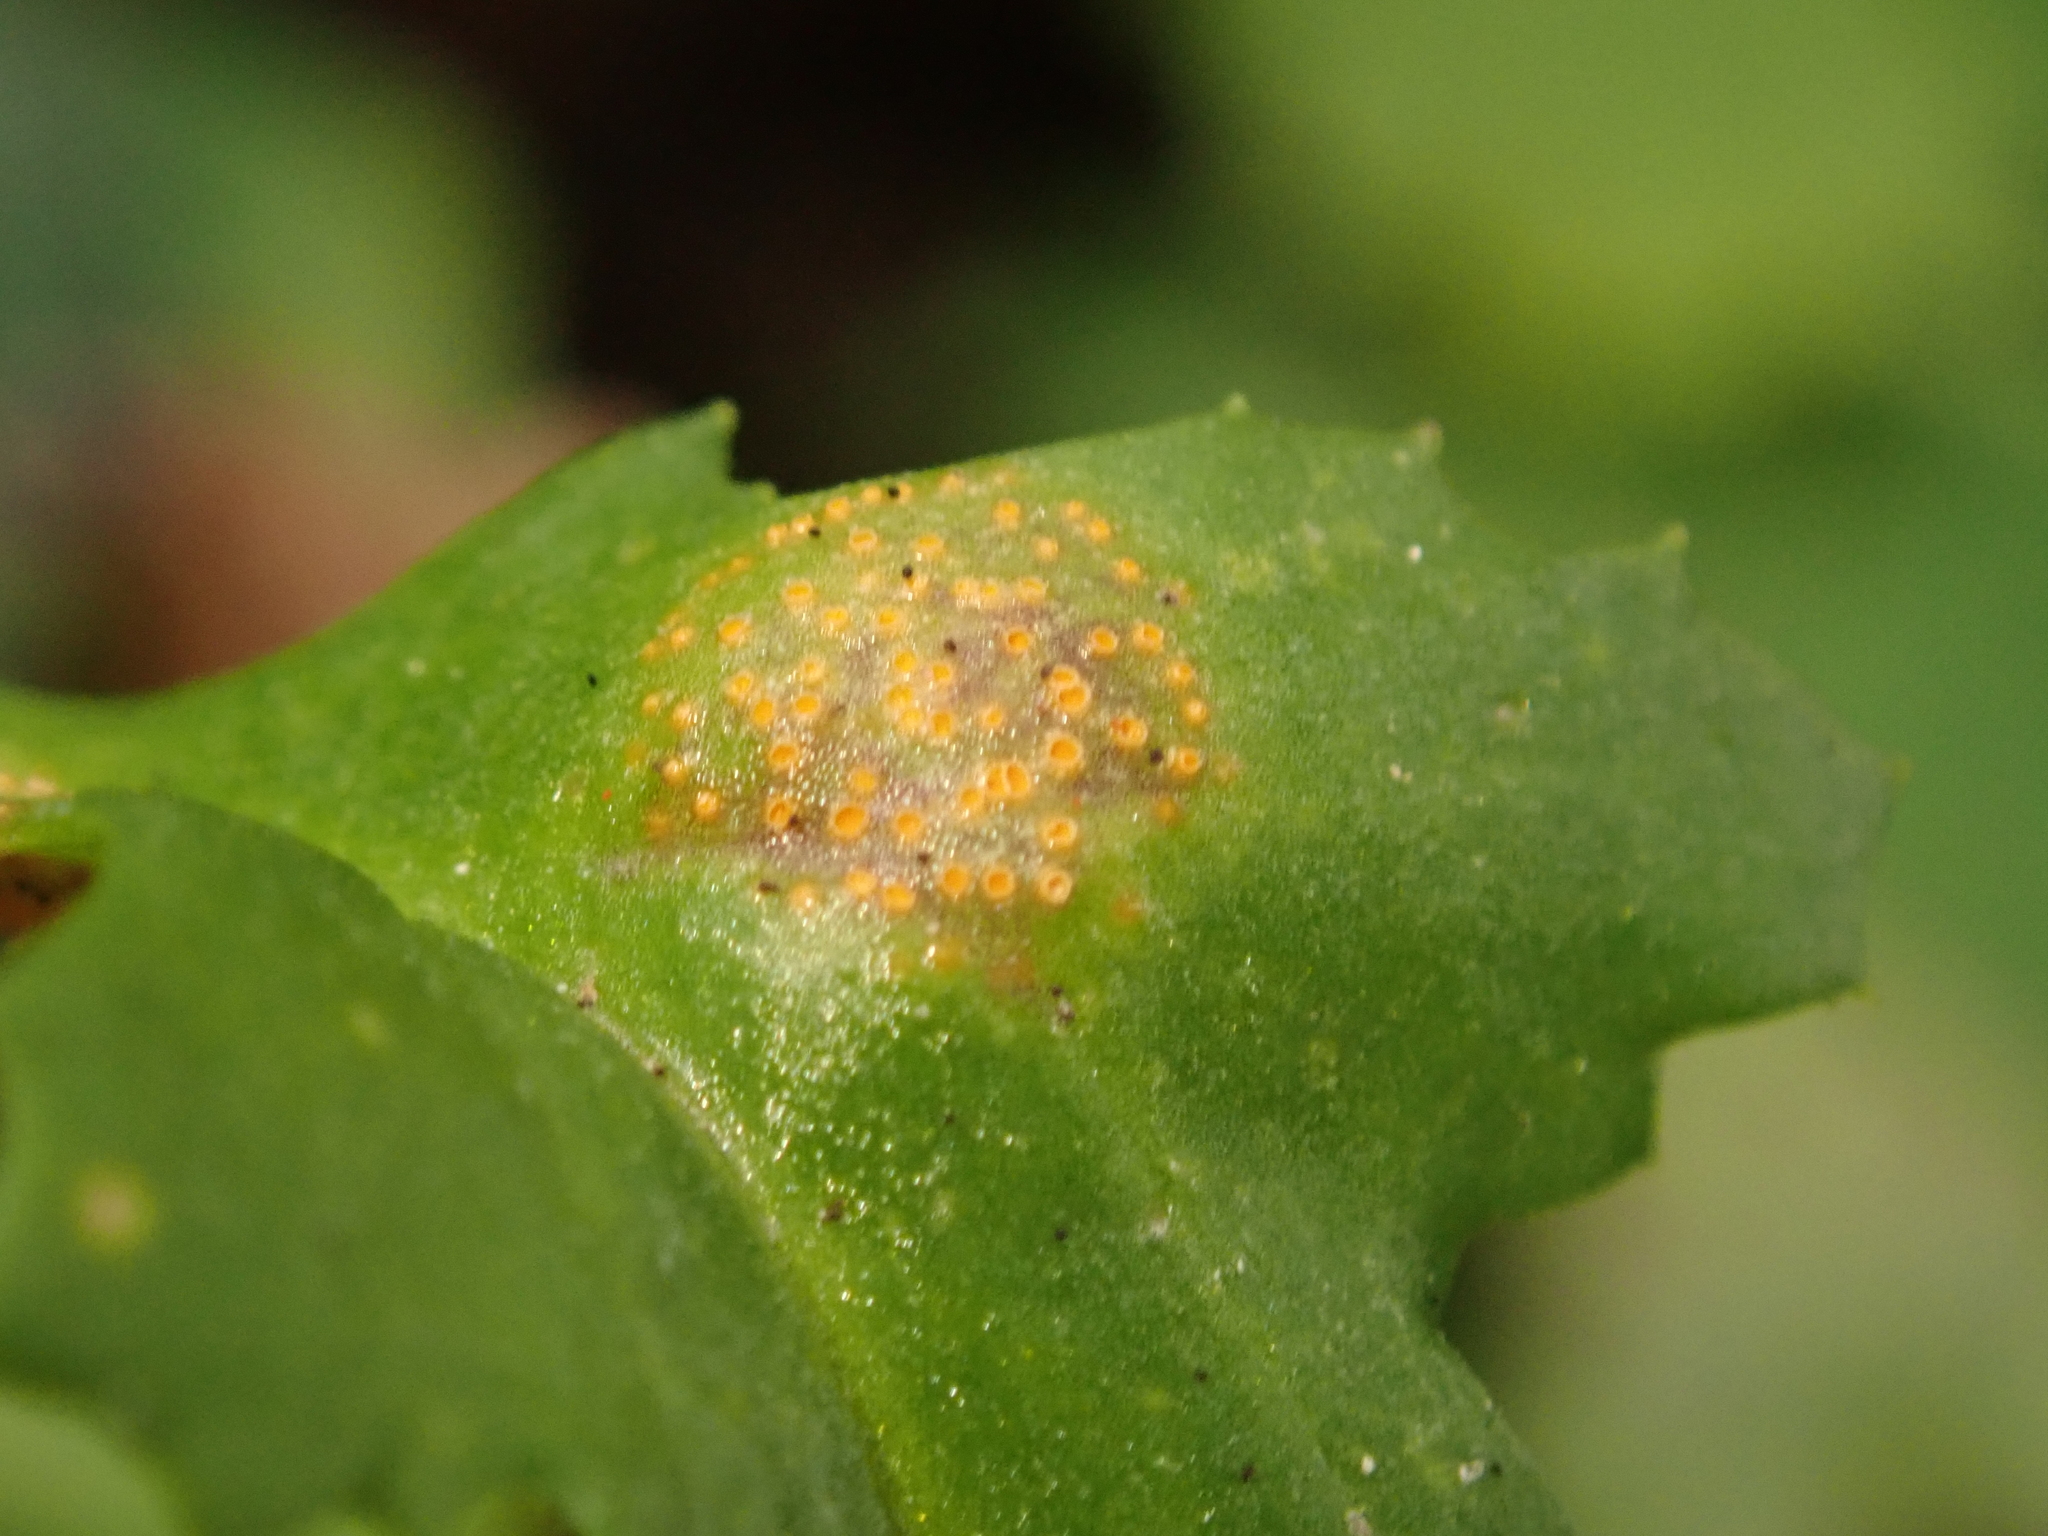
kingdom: Fungi
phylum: Basidiomycota
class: Pucciniomycetes
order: Pucciniales
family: Pucciniaceae
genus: Puccinia
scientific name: Puccinia lagenophorae
